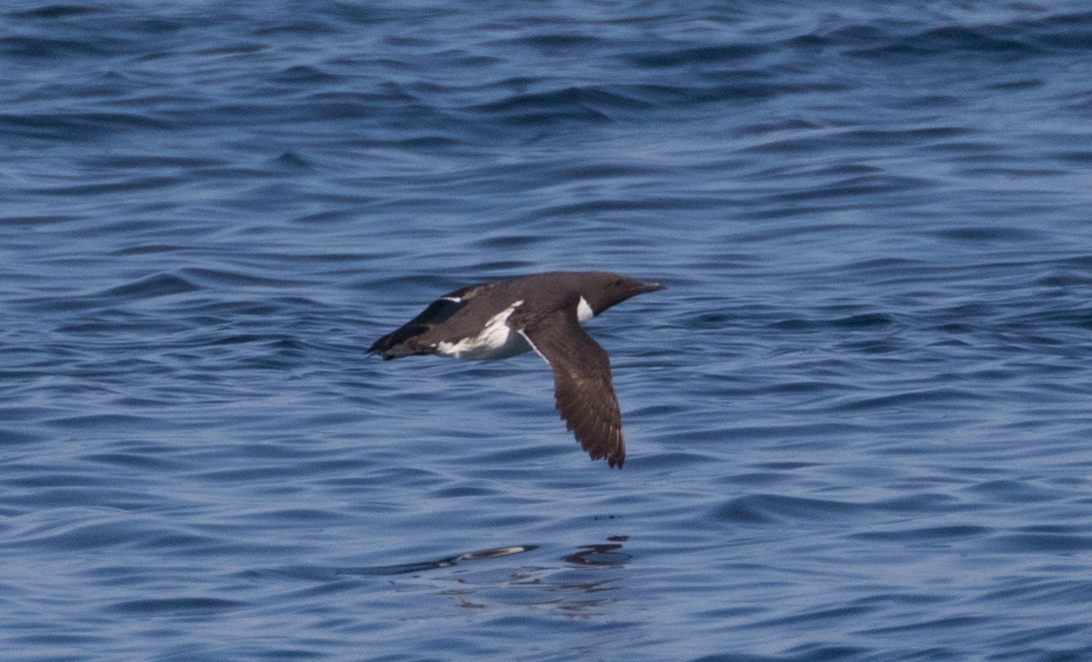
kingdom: Animalia
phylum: Chordata
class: Aves
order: Charadriiformes
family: Alcidae
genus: Uria
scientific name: Uria aalge
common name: Common murre
